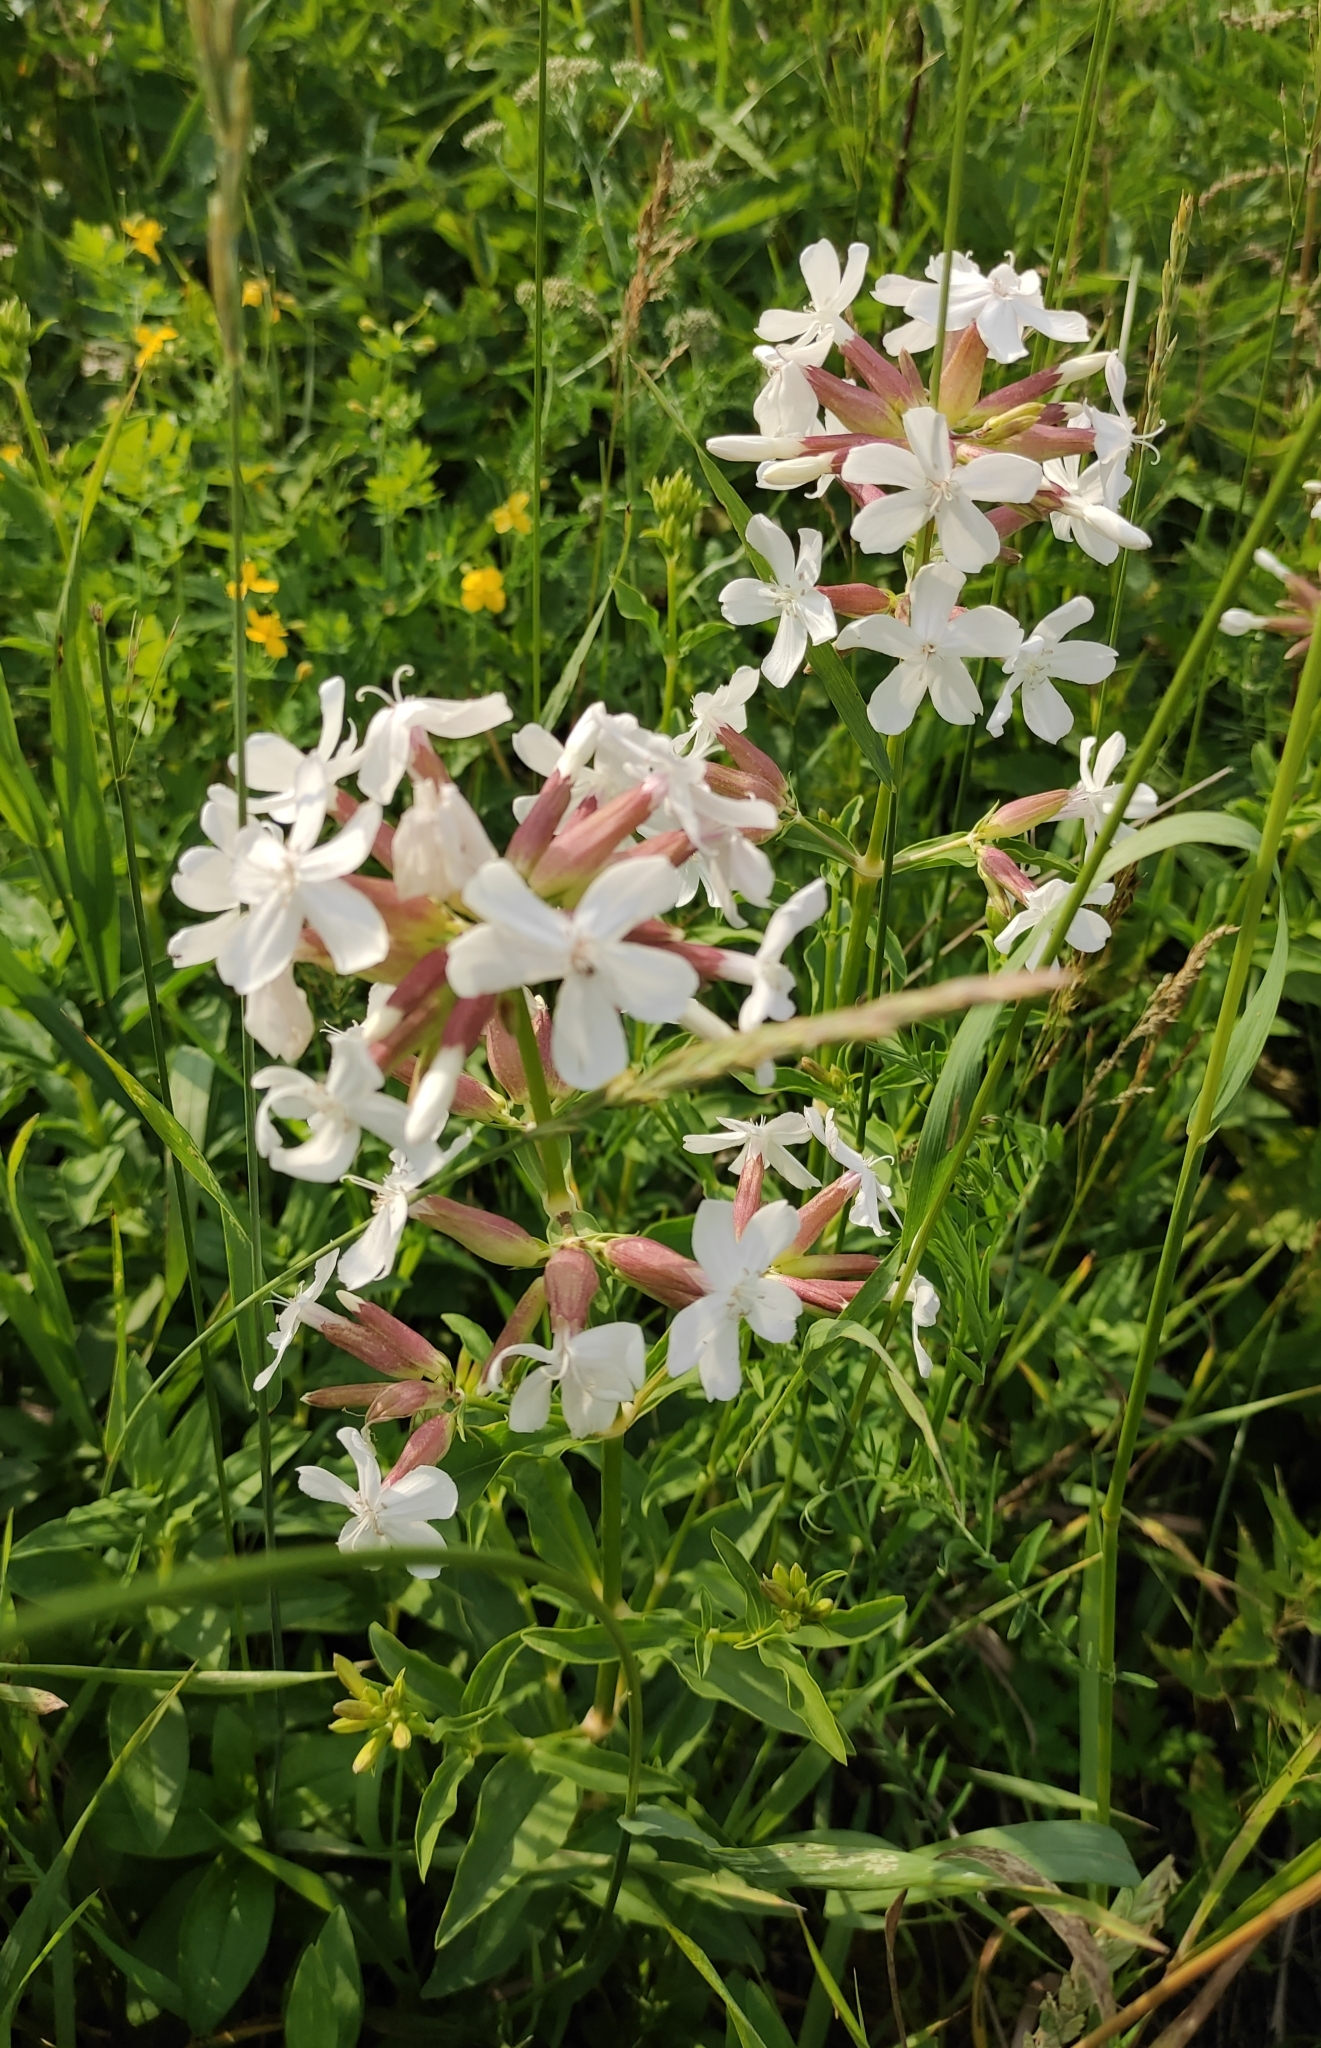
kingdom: Plantae
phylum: Tracheophyta
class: Magnoliopsida
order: Caryophyllales
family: Caryophyllaceae
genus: Saponaria
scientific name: Saponaria officinalis
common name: Soapwort
